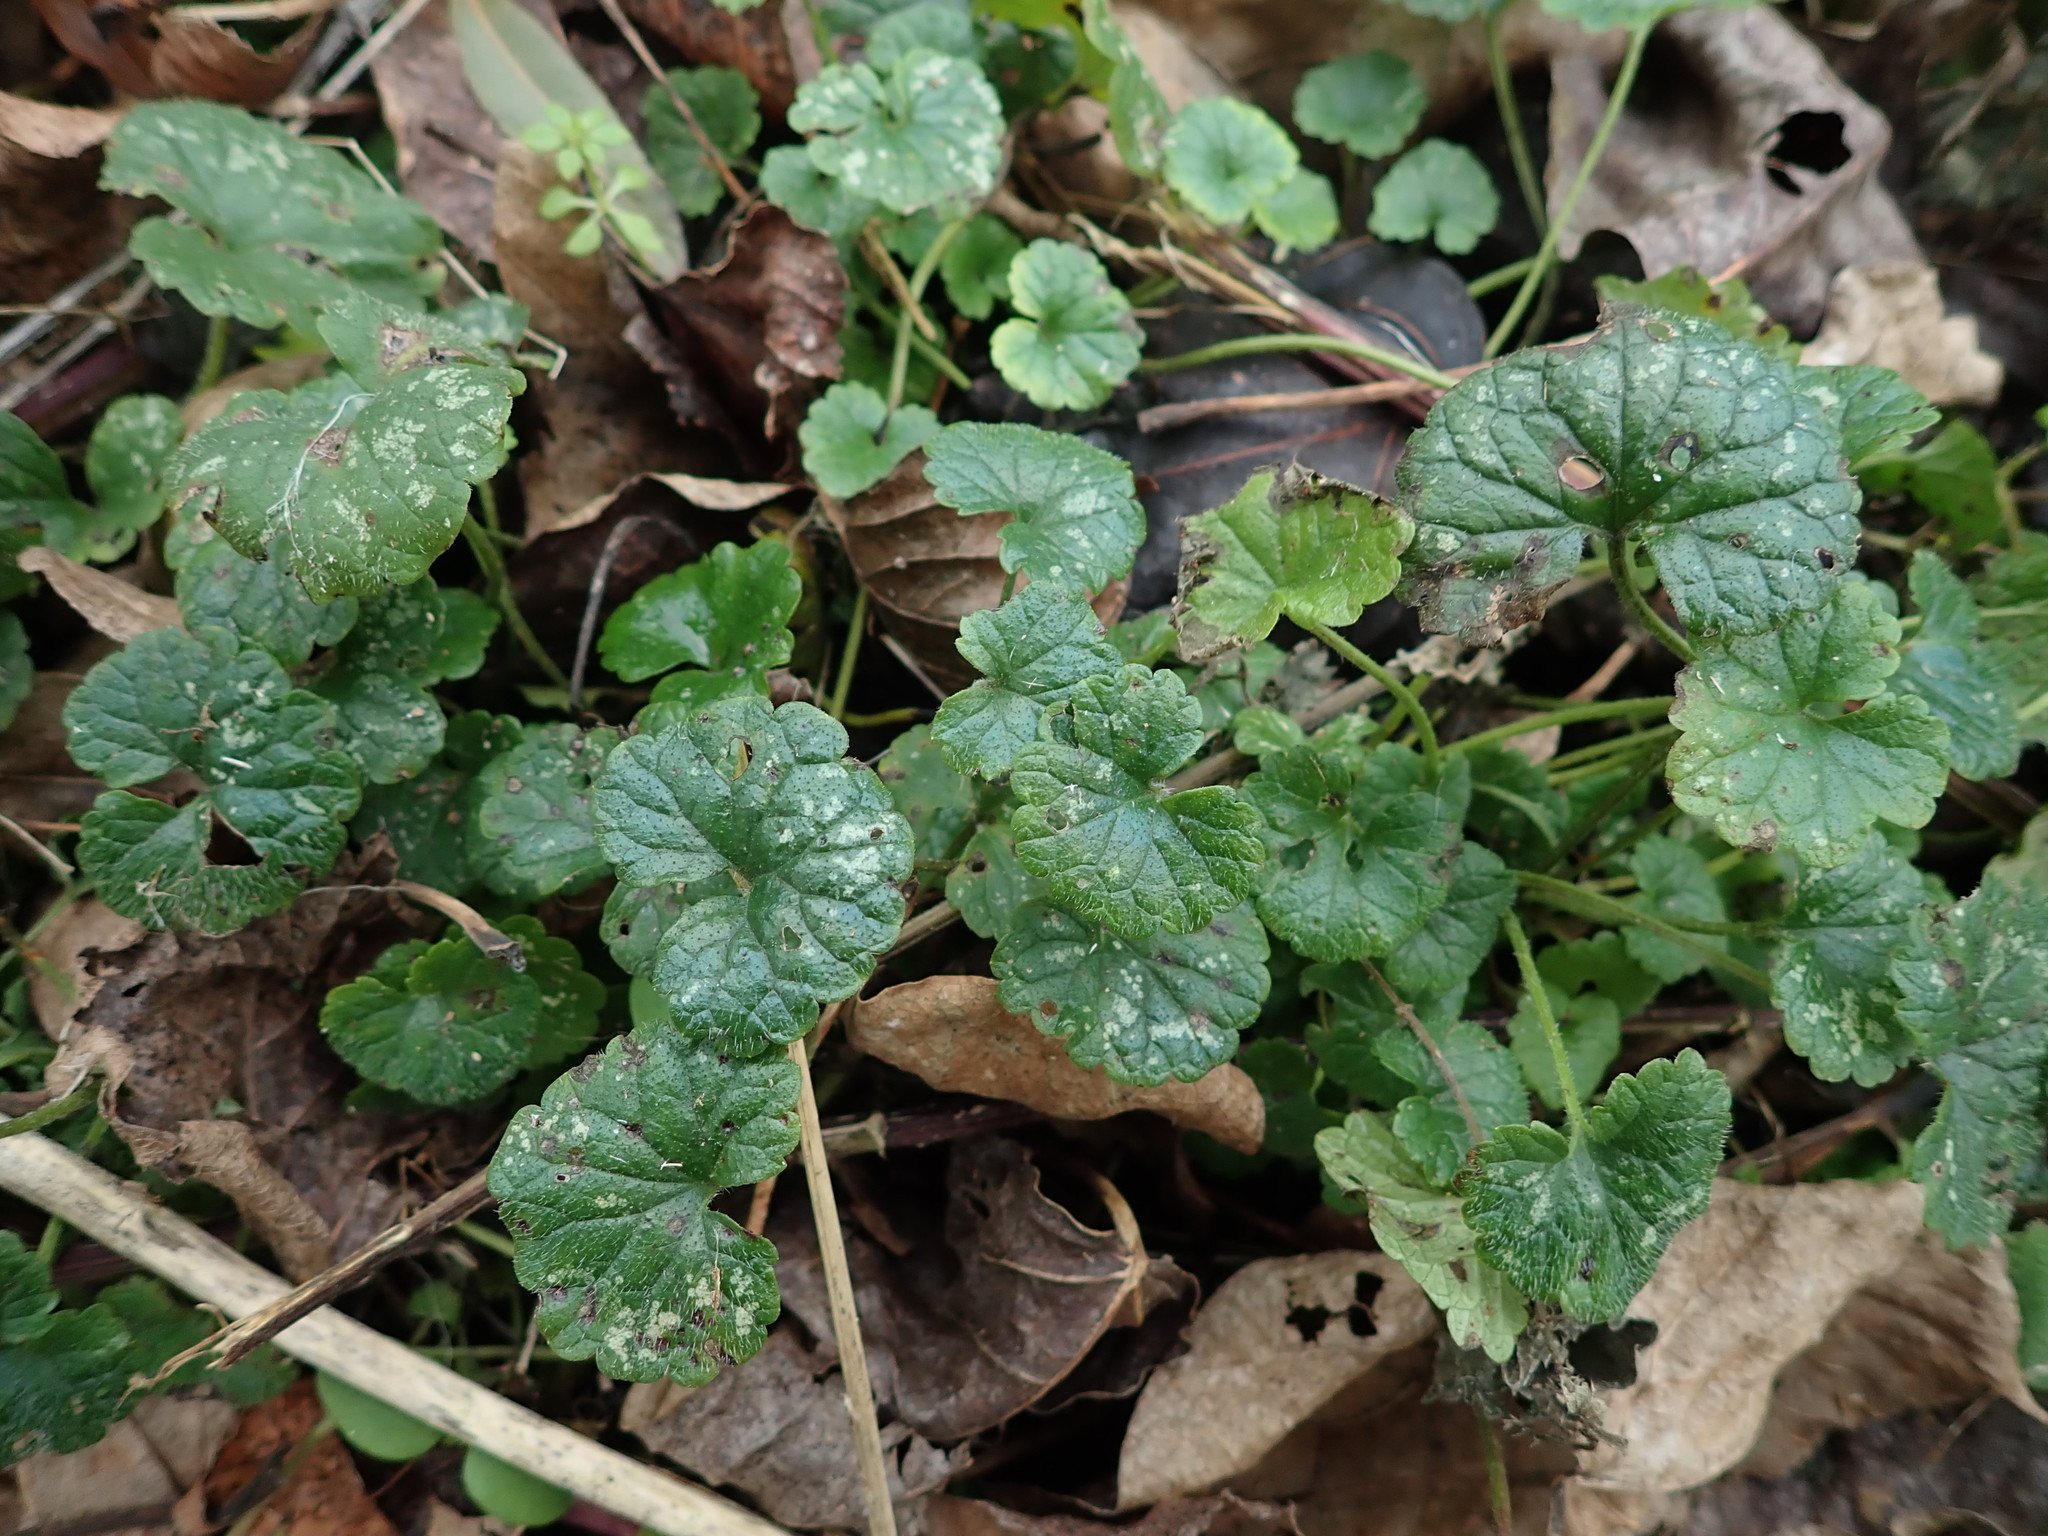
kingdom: Plantae
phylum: Tracheophyta
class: Magnoliopsida
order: Lamiales
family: Lamiaceae
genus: Glechoma
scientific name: Glechoma hederacea
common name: Ground ivy
